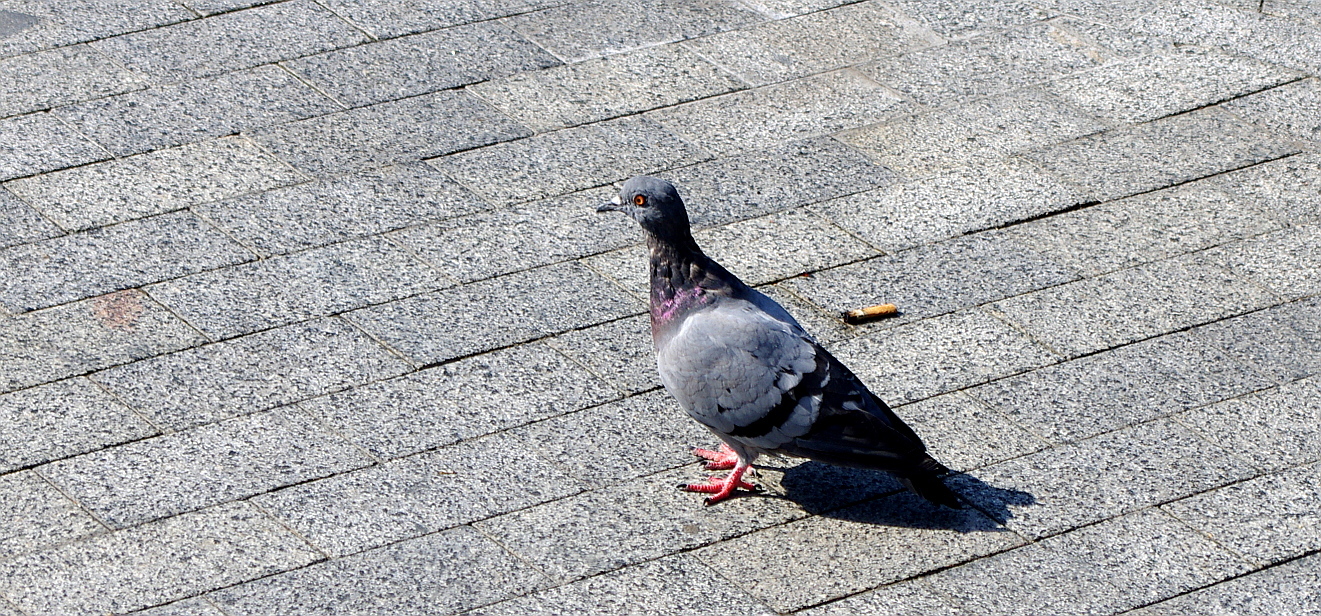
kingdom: Animalia
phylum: Chordata
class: Aves
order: Columbiformes
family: Columbidae
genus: Columba
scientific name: Columba livia
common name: Rock pigeon
